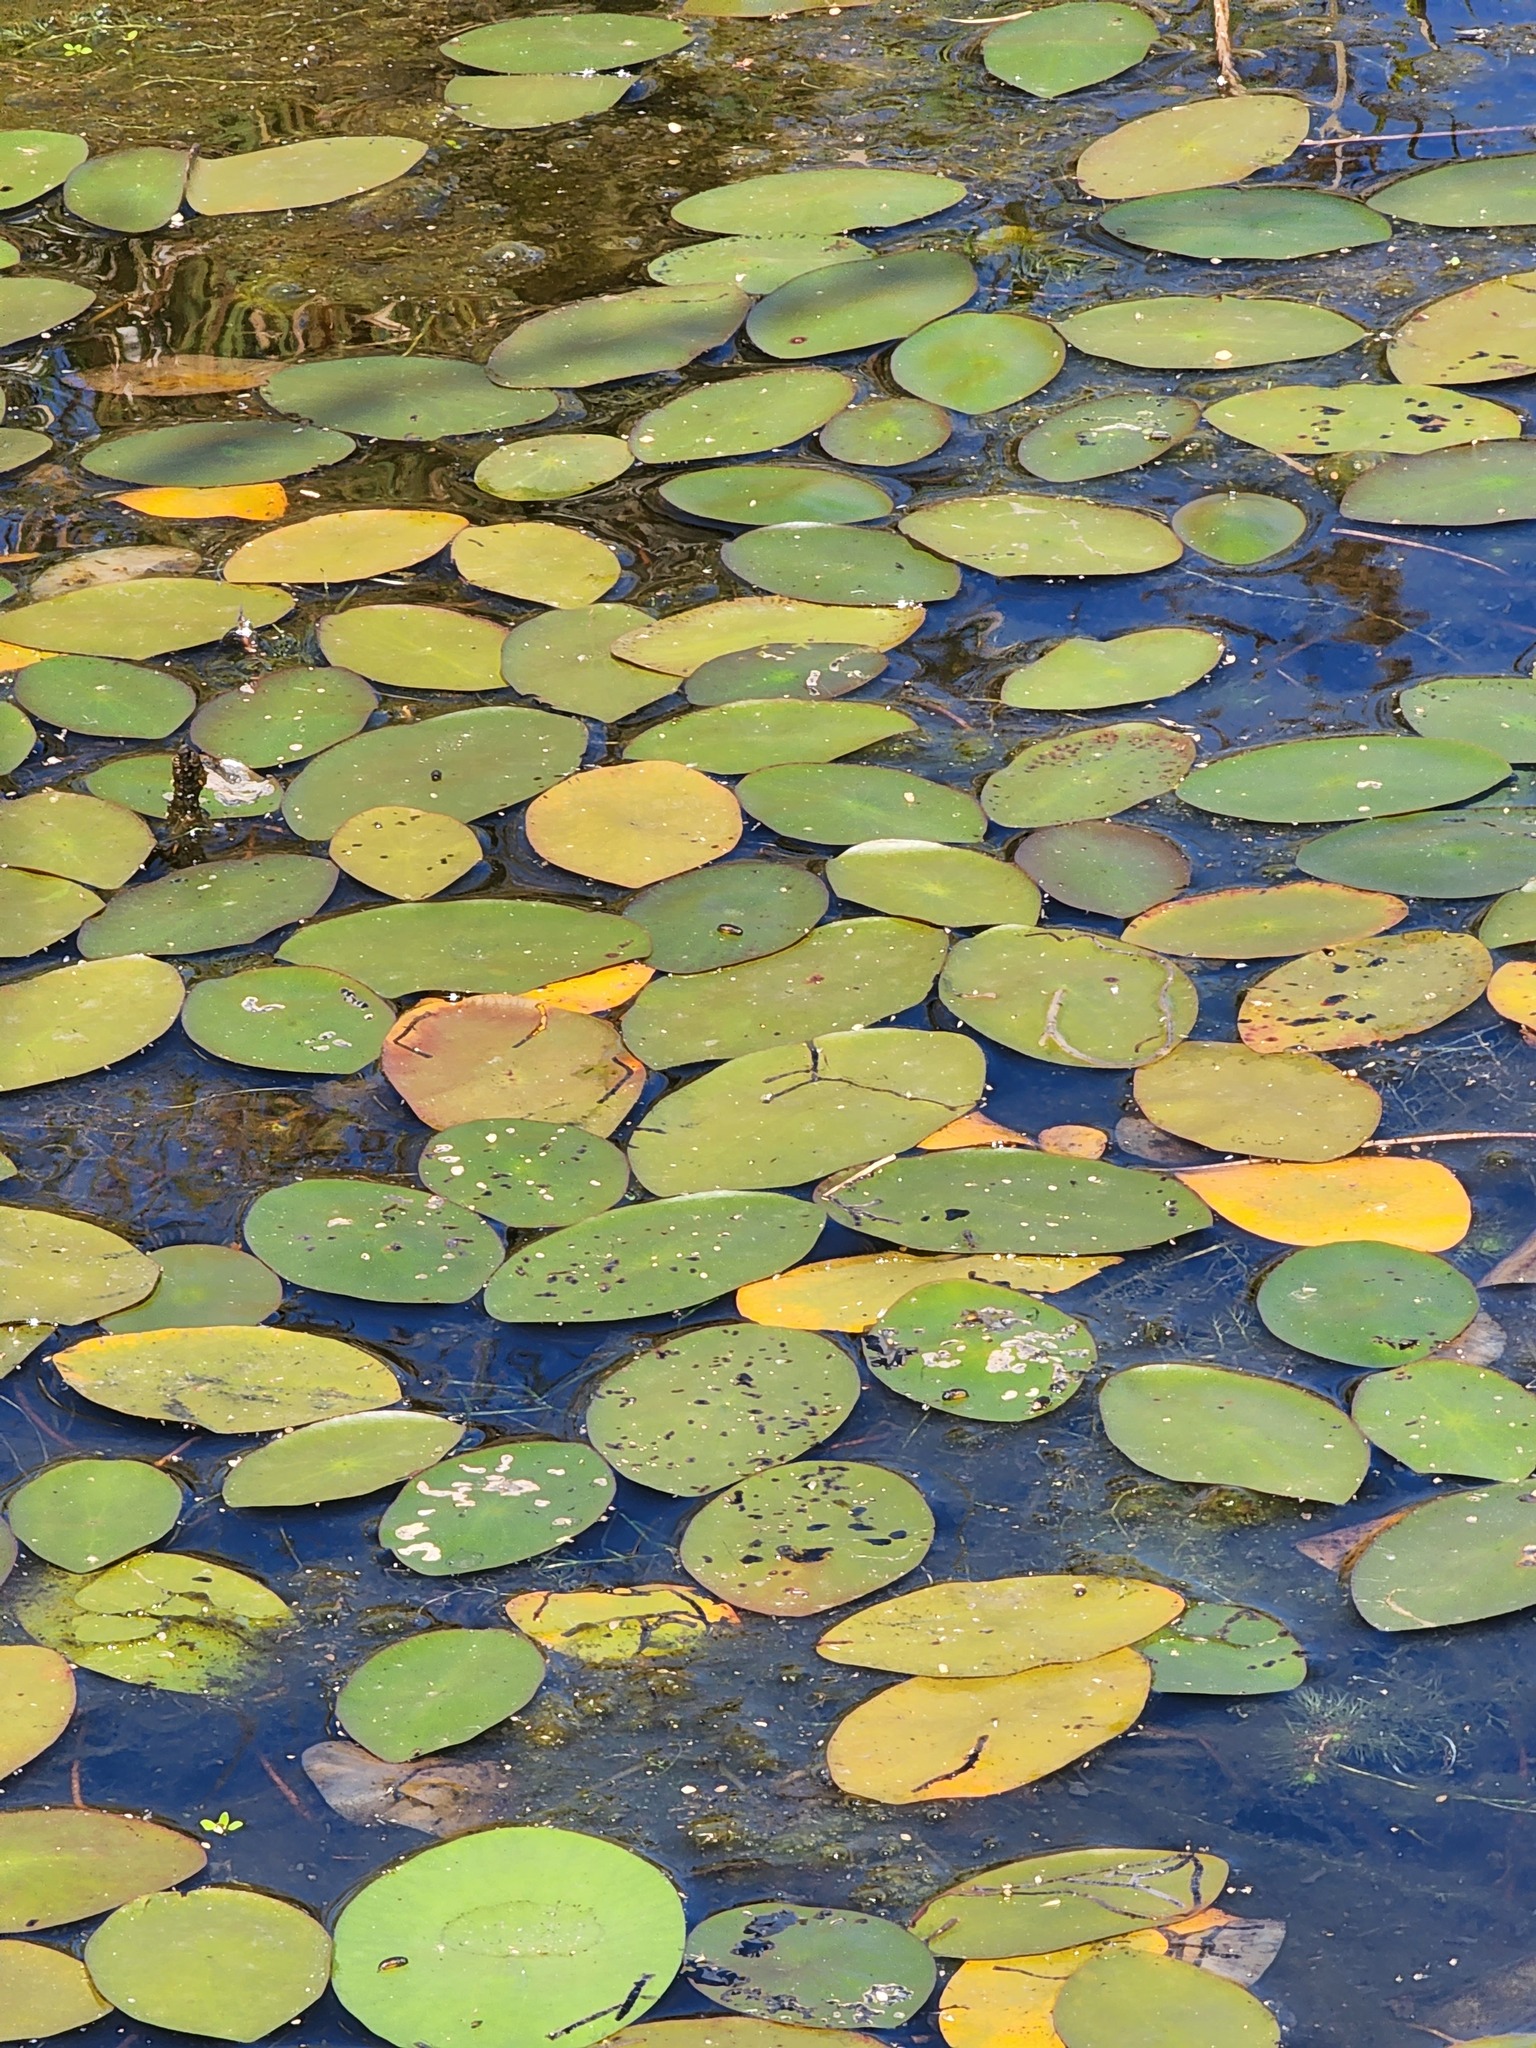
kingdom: Plantae
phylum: Tracheophyta
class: Magnoliopsida
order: Nymphaeales
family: Cabombaceae
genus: Brasenia
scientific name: Brasenia schreberi
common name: Water-shield
